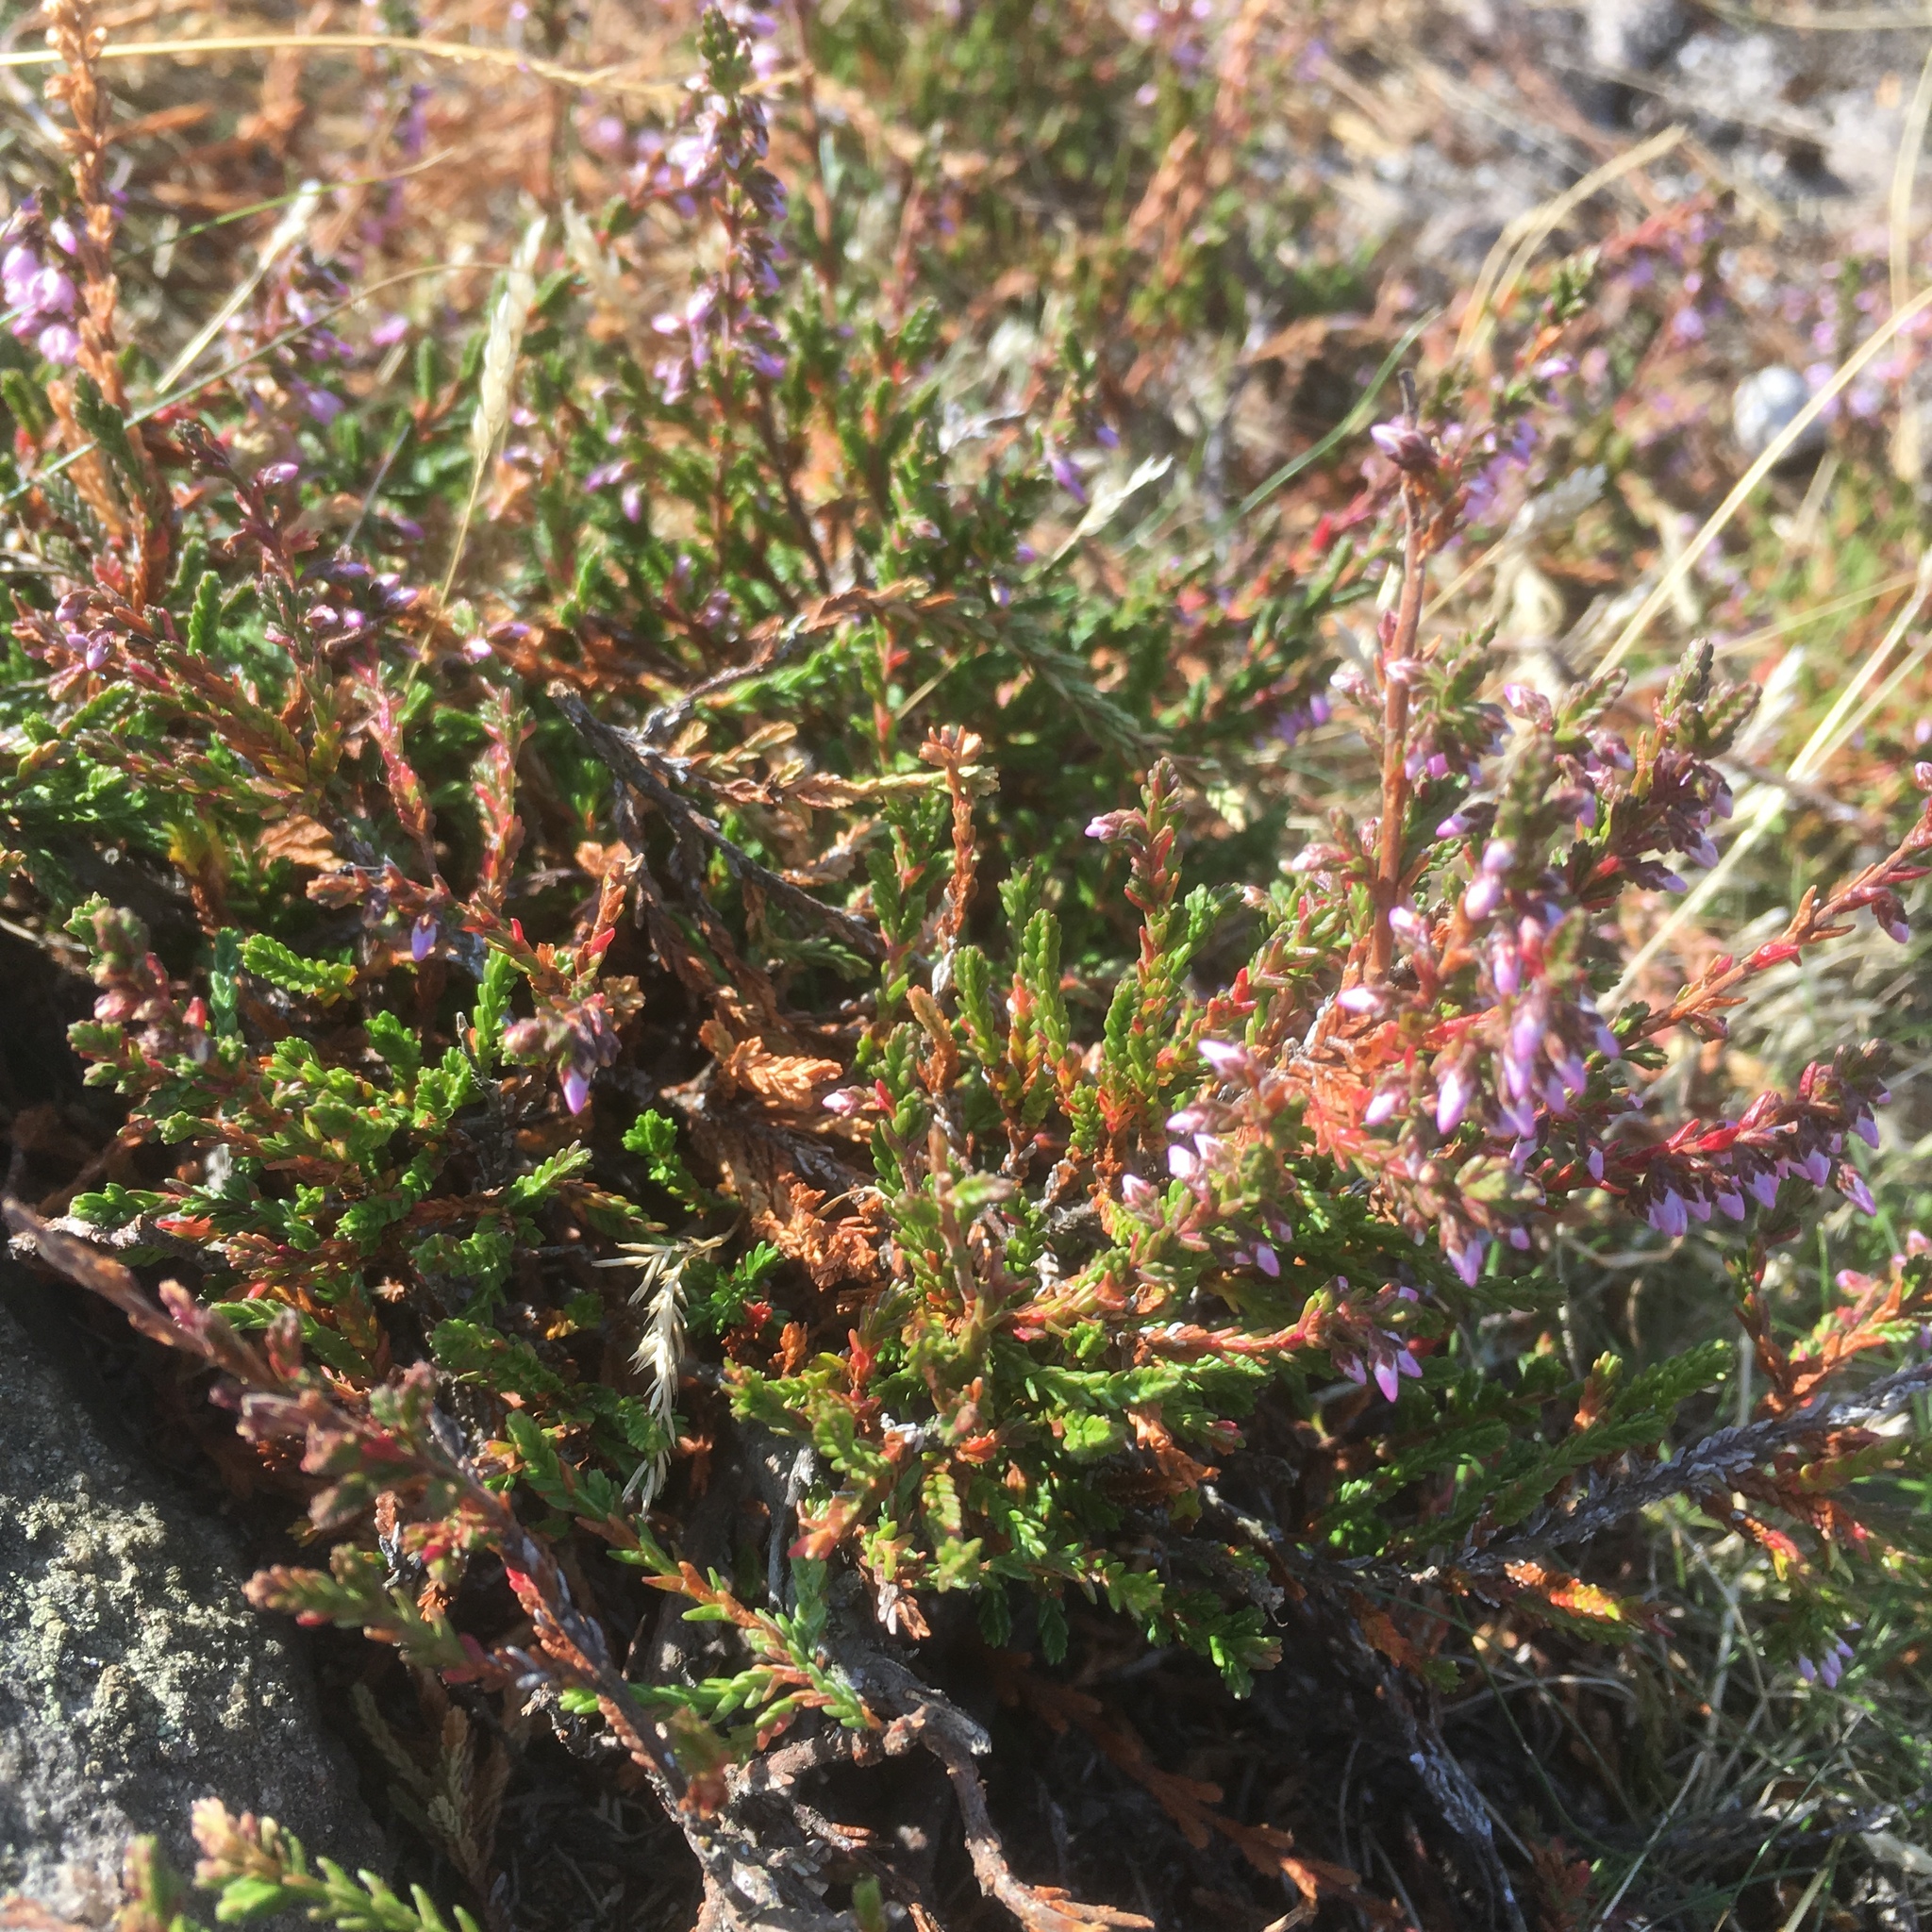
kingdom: Plantae
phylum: Tracheophyta
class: Magnoliopsida
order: Ericales
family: Ericaceae
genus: Calluna
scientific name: Calluna vulgaris
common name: Heather
